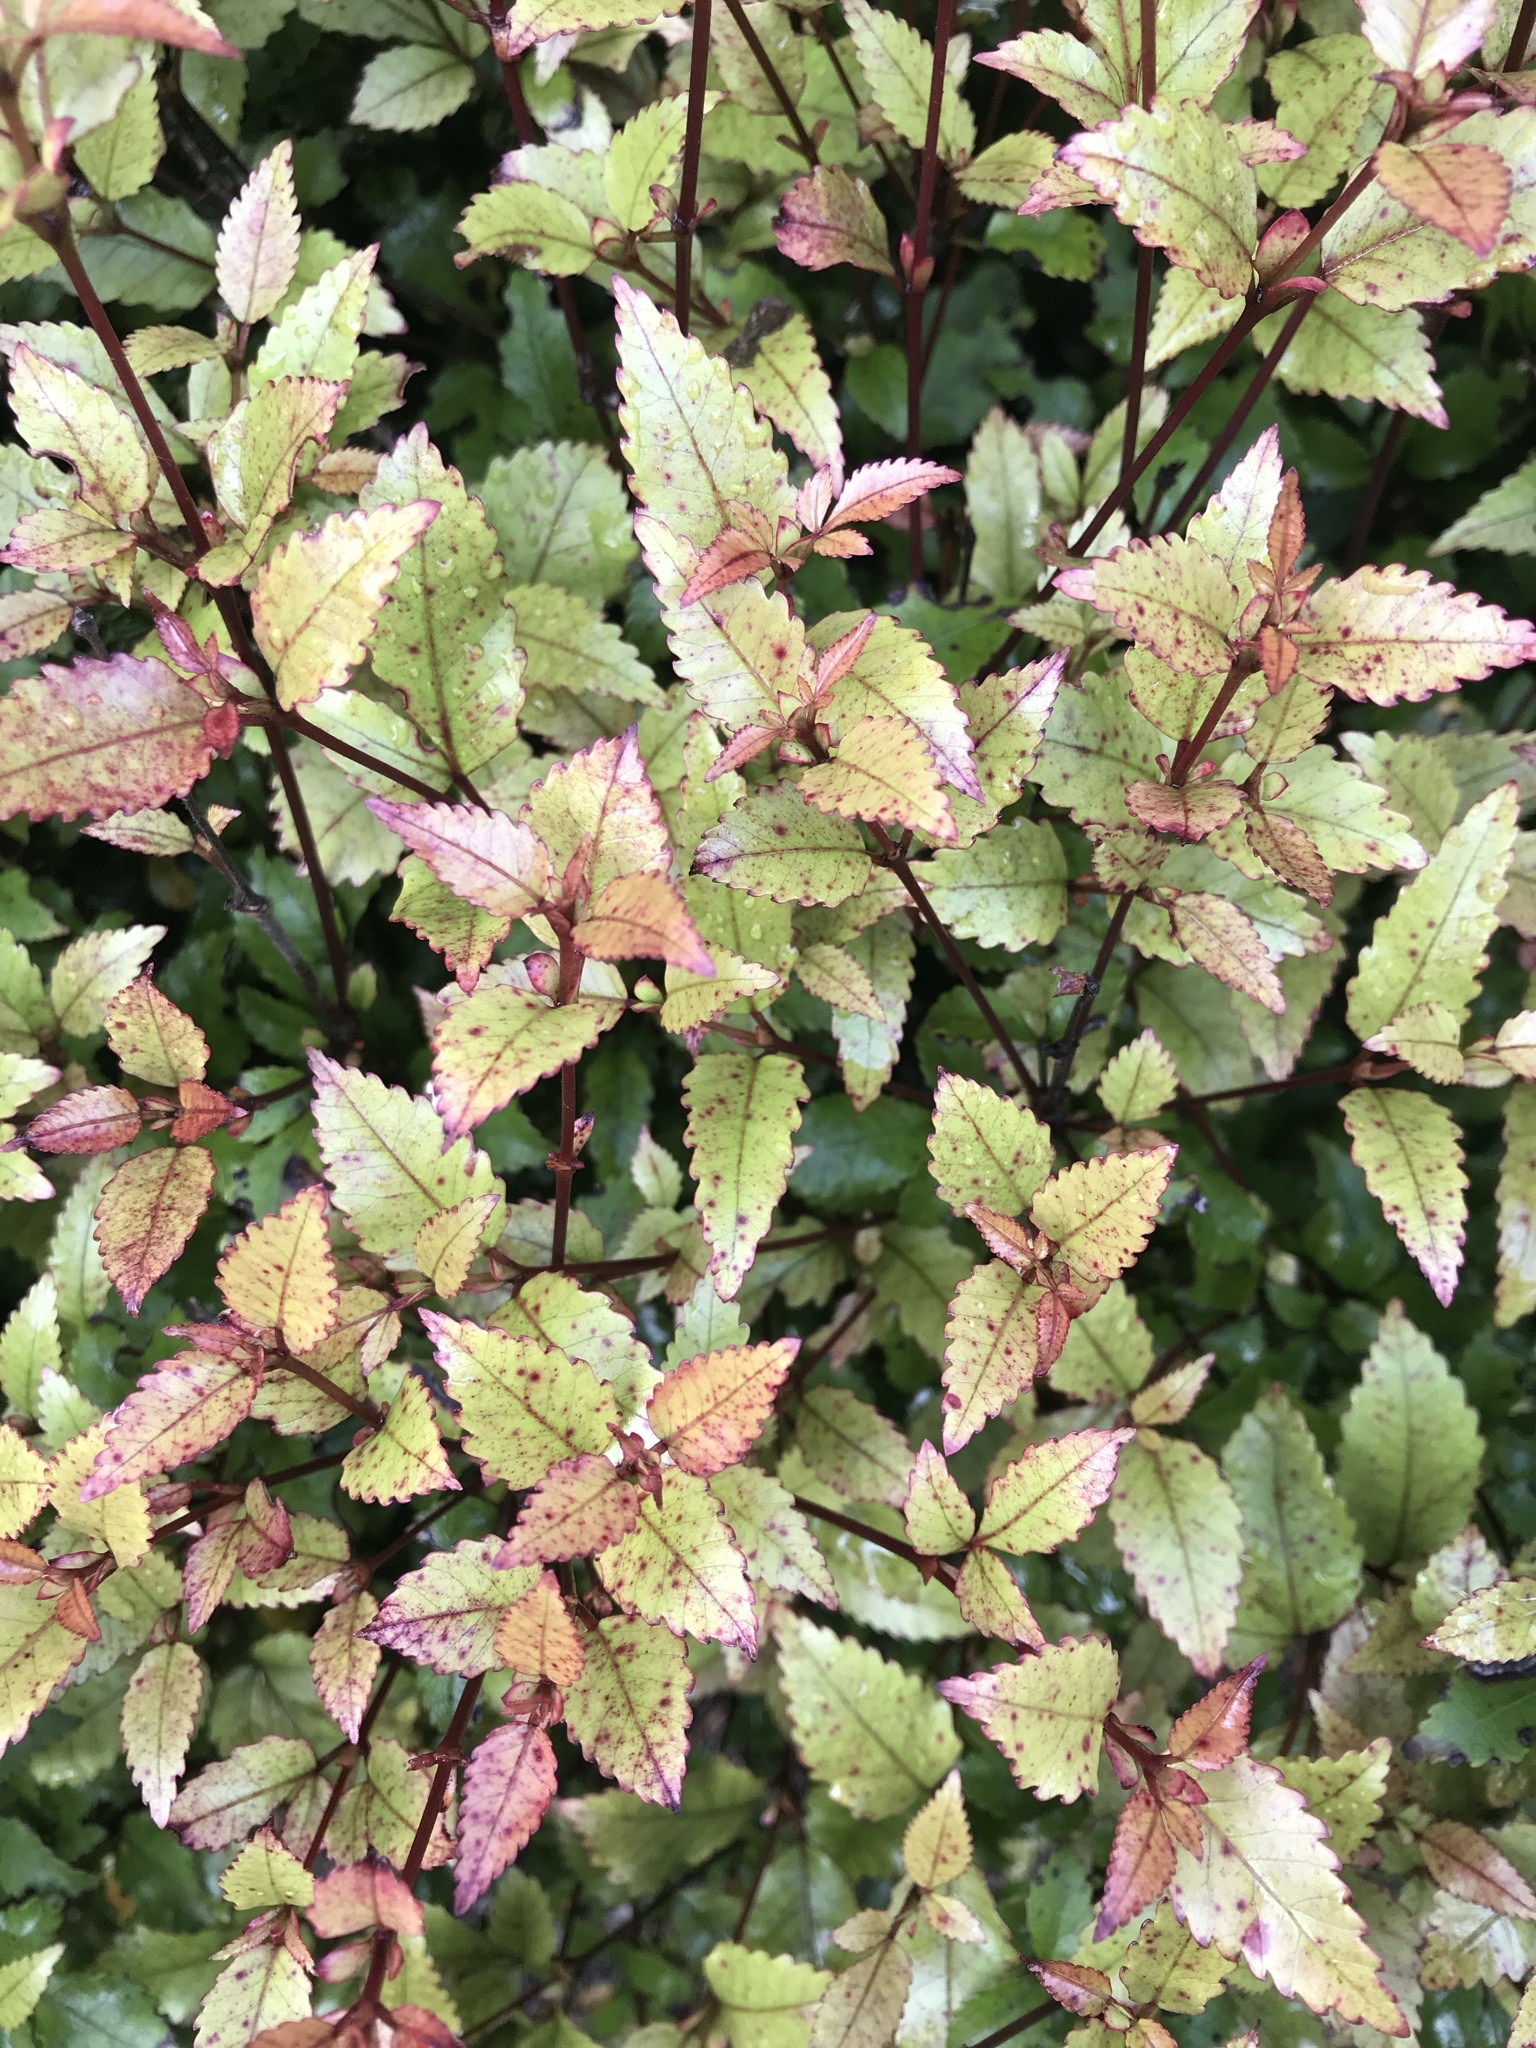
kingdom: Plantae
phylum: Tracheophyta
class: Magnoliopsida
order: Oxalidales
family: Cunoniaceae
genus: Pterophylla
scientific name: Pterophylla racemosa
